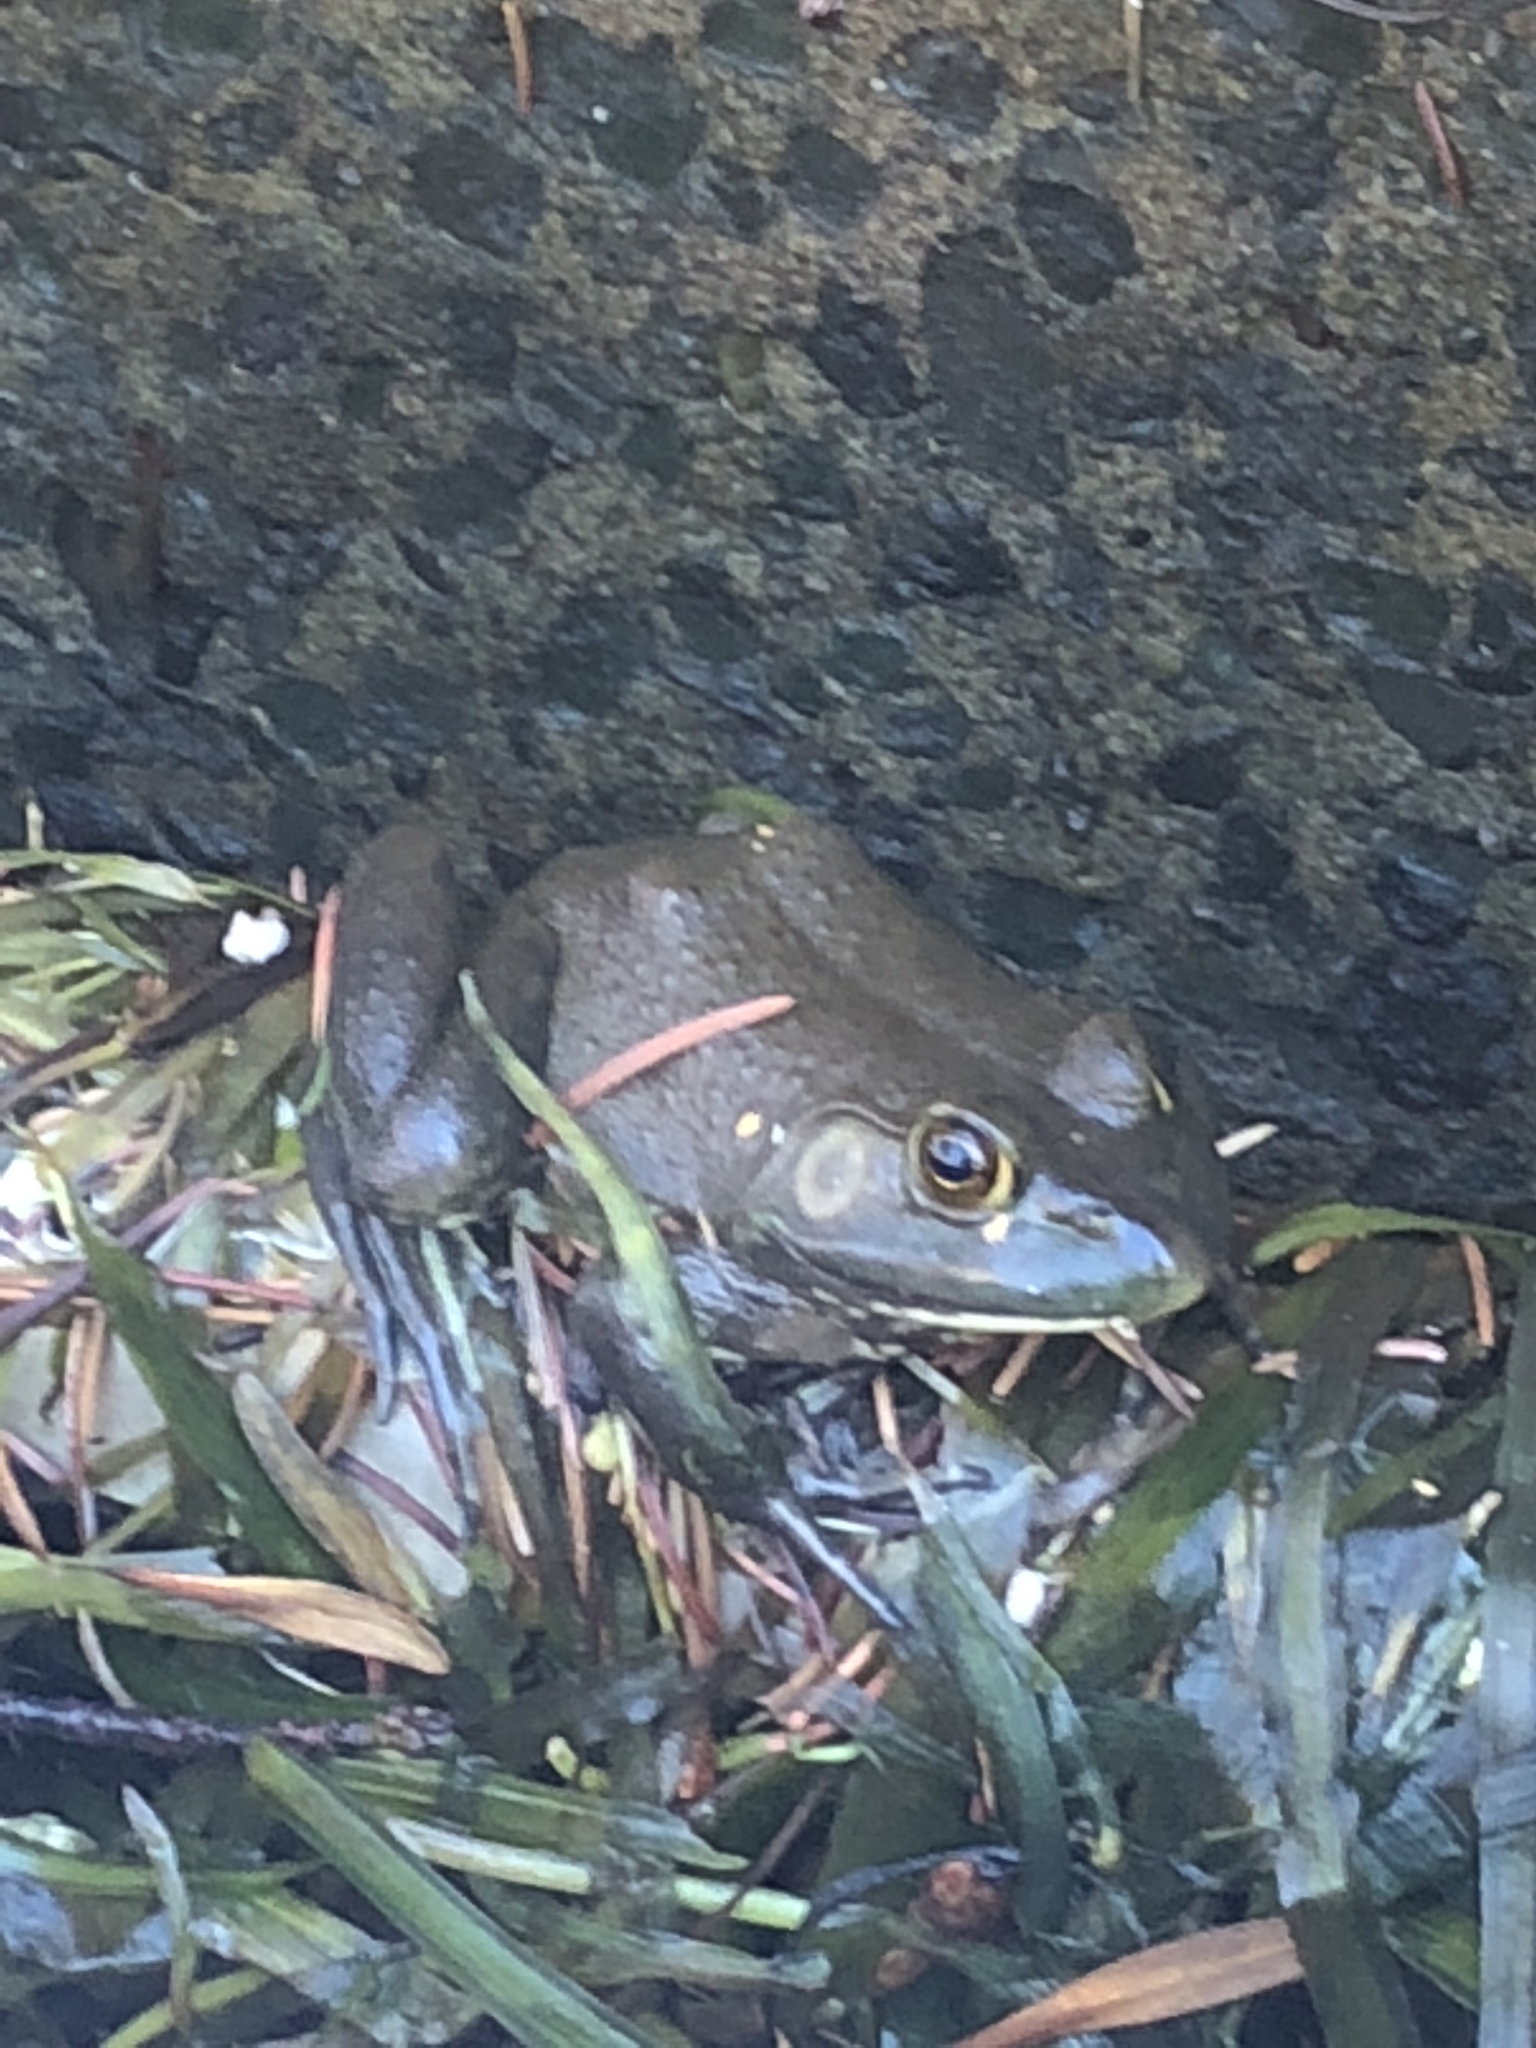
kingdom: Animalia
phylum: Chordata
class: Amphibia
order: Anura
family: Ranidae
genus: Lithobates
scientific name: Lithobates catesbeianus
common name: American bullfrog
